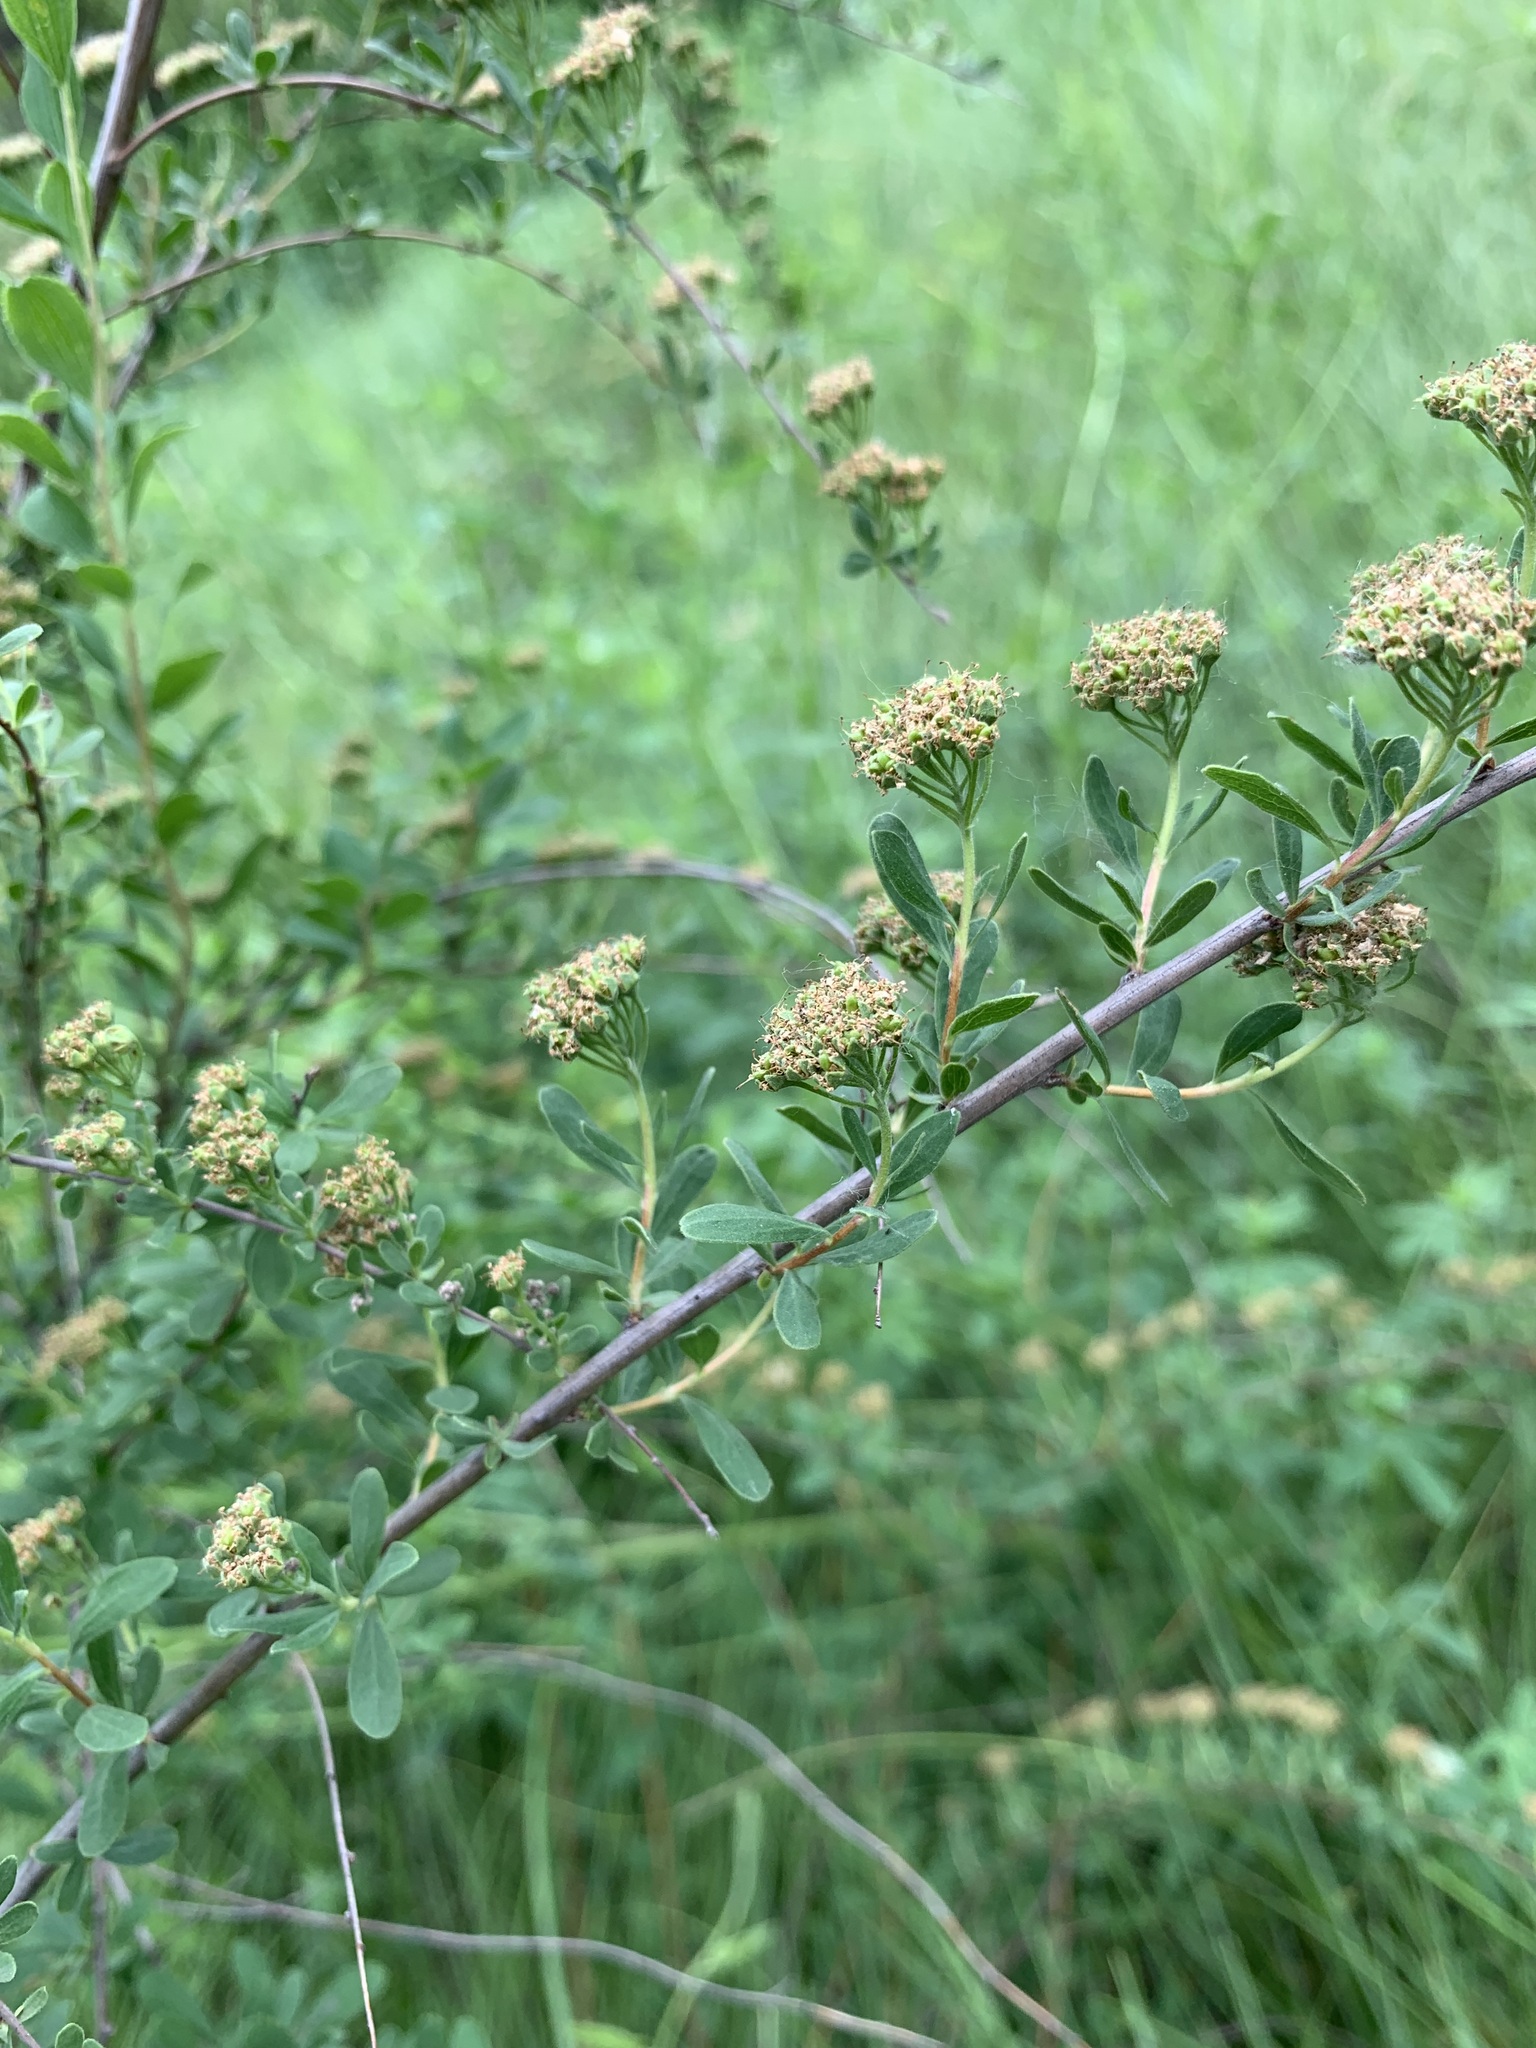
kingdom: Plantae
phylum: Tracheophyta
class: Magnoliopsida
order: Rosales
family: Rosaceae
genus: Spiraea
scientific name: Spiraea crenata
